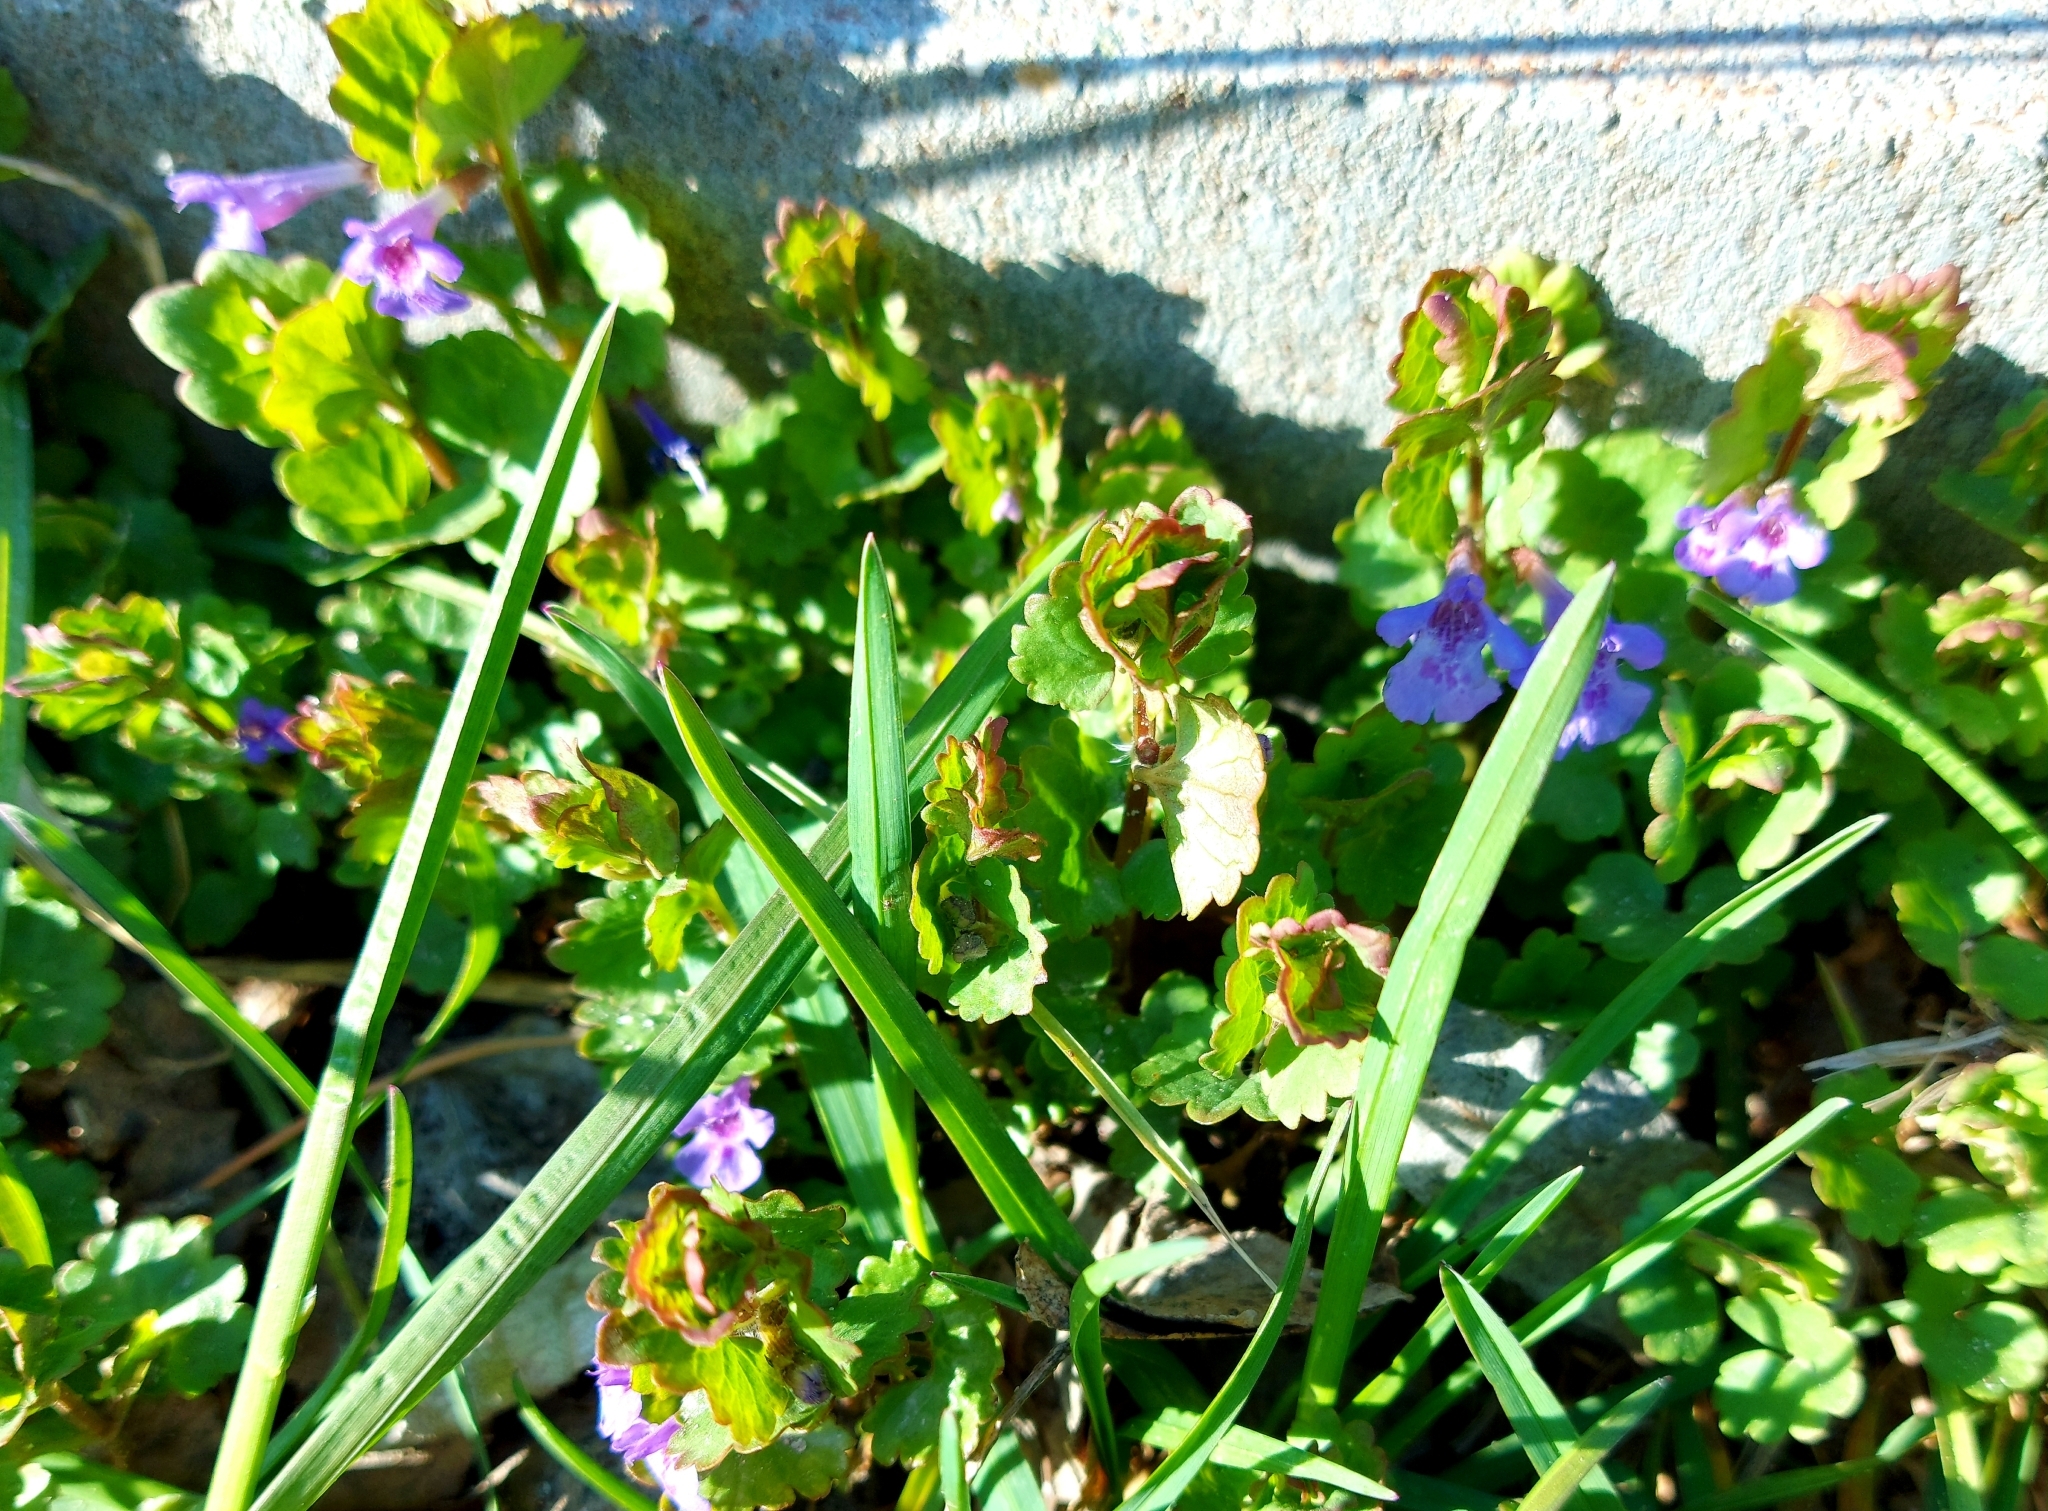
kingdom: Plantae
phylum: Tracheophyta
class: Magnoliopsida
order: Lamiales
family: Lamiaceae
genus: Glechoma
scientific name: Glechoma hederacea
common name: Ground ivy
